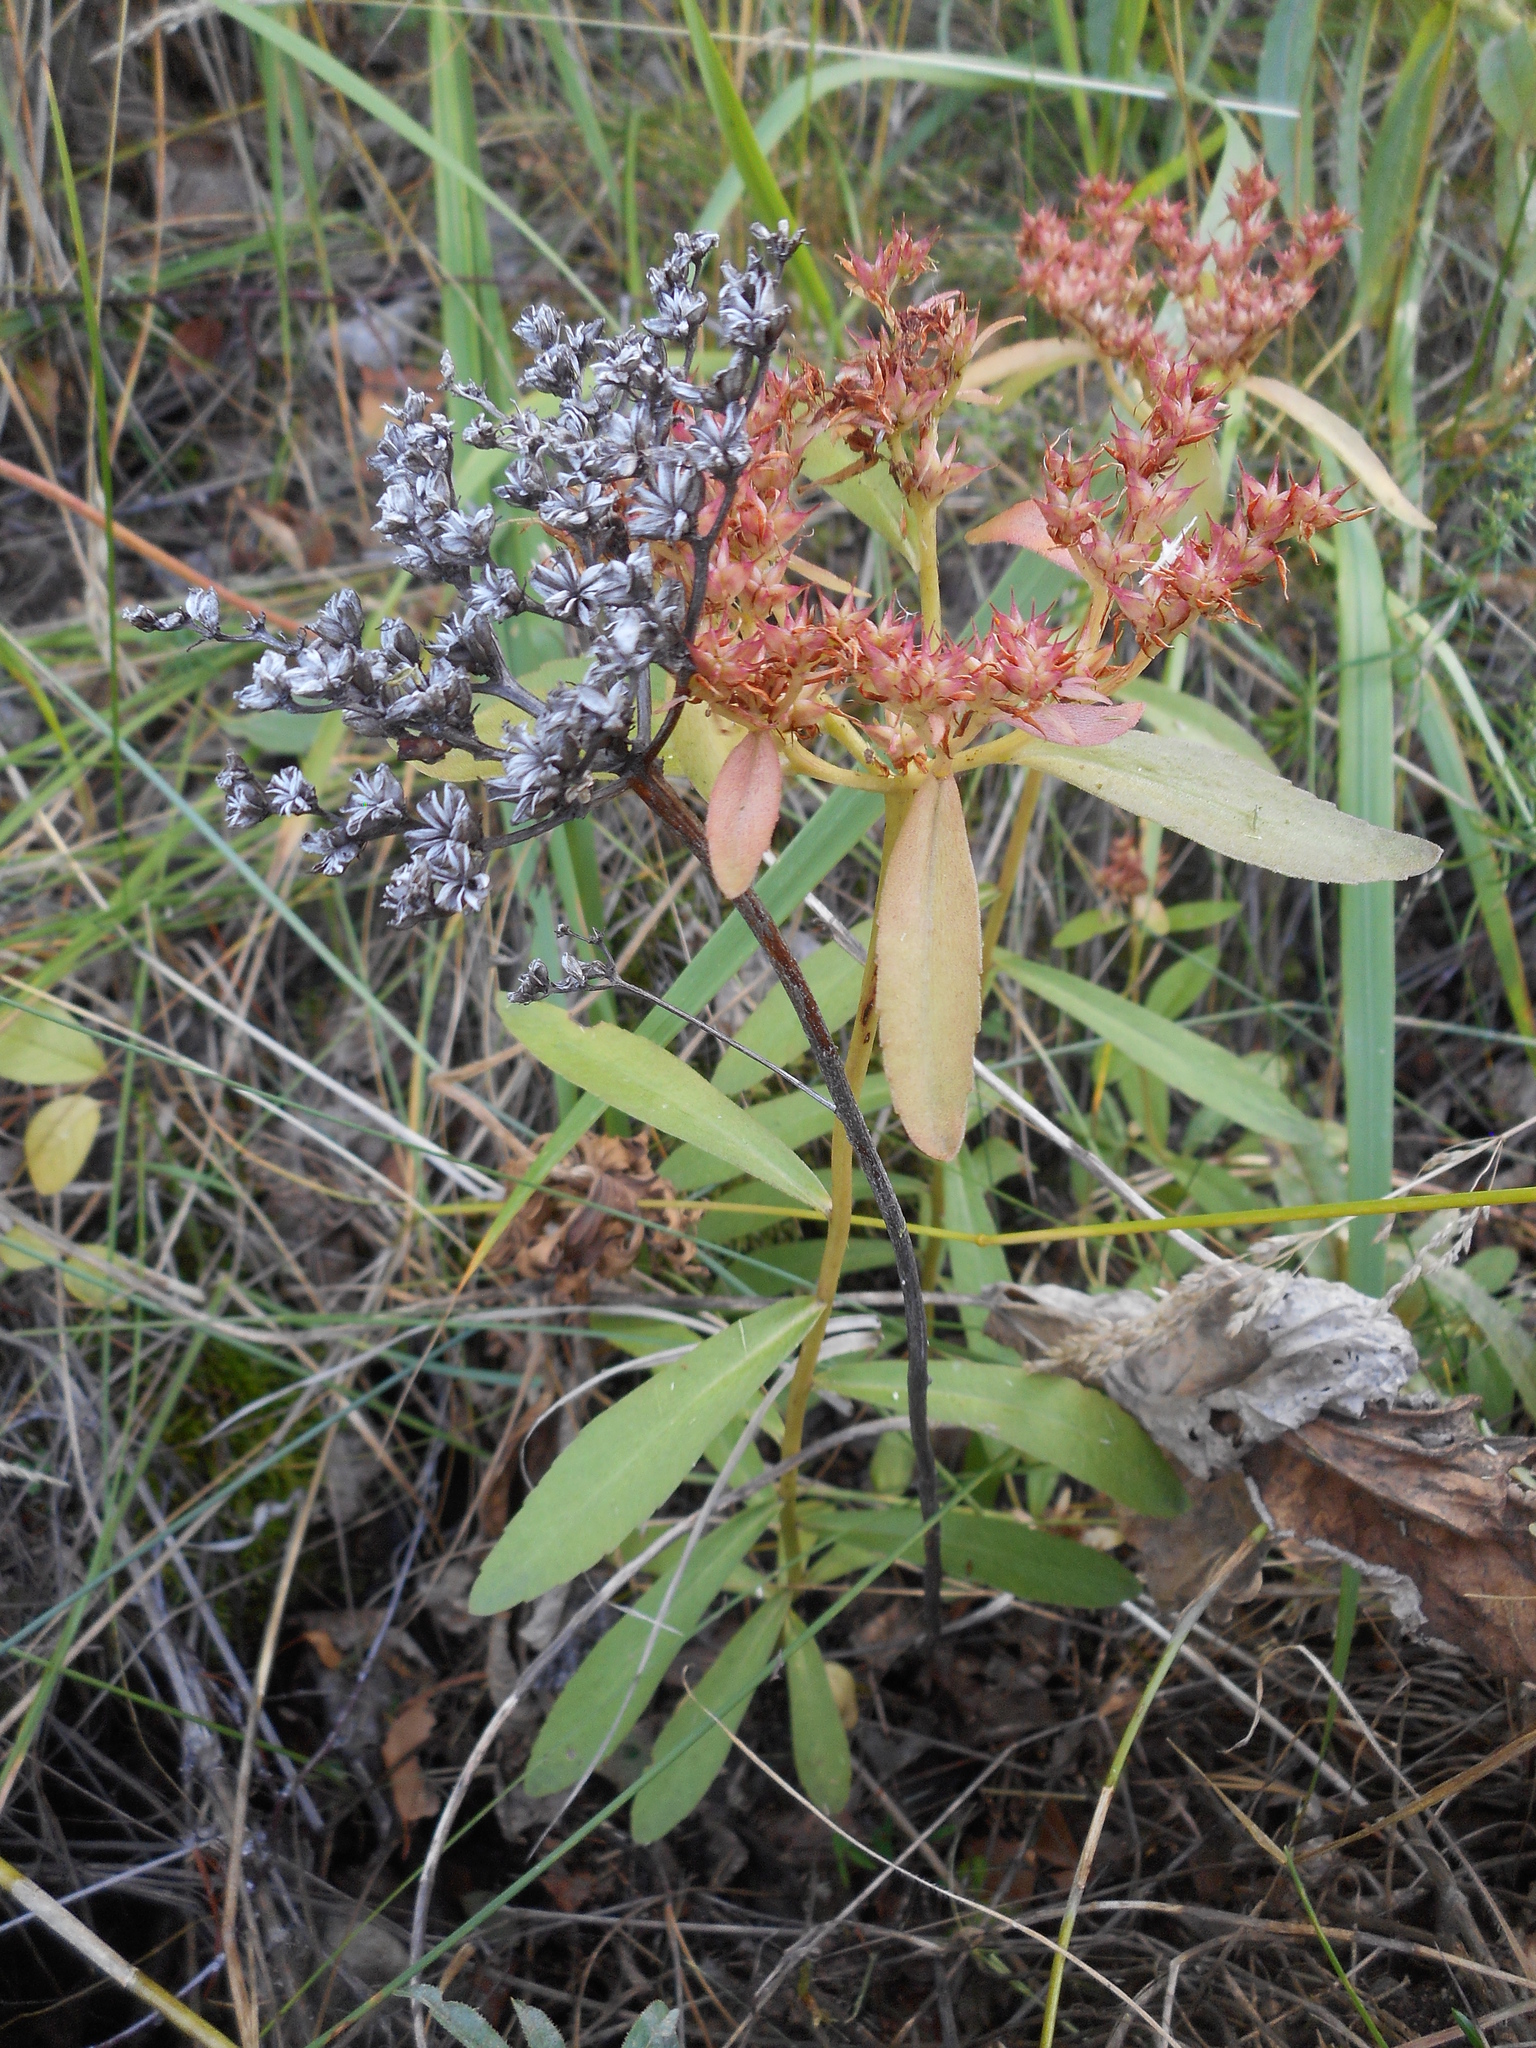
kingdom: Plantae
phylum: Tracheophyta
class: Magnoliopsida
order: Saxifragales
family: Crassulaceae
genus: Phedimus
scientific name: Phedimus aizoon
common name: Orpin aizoon
